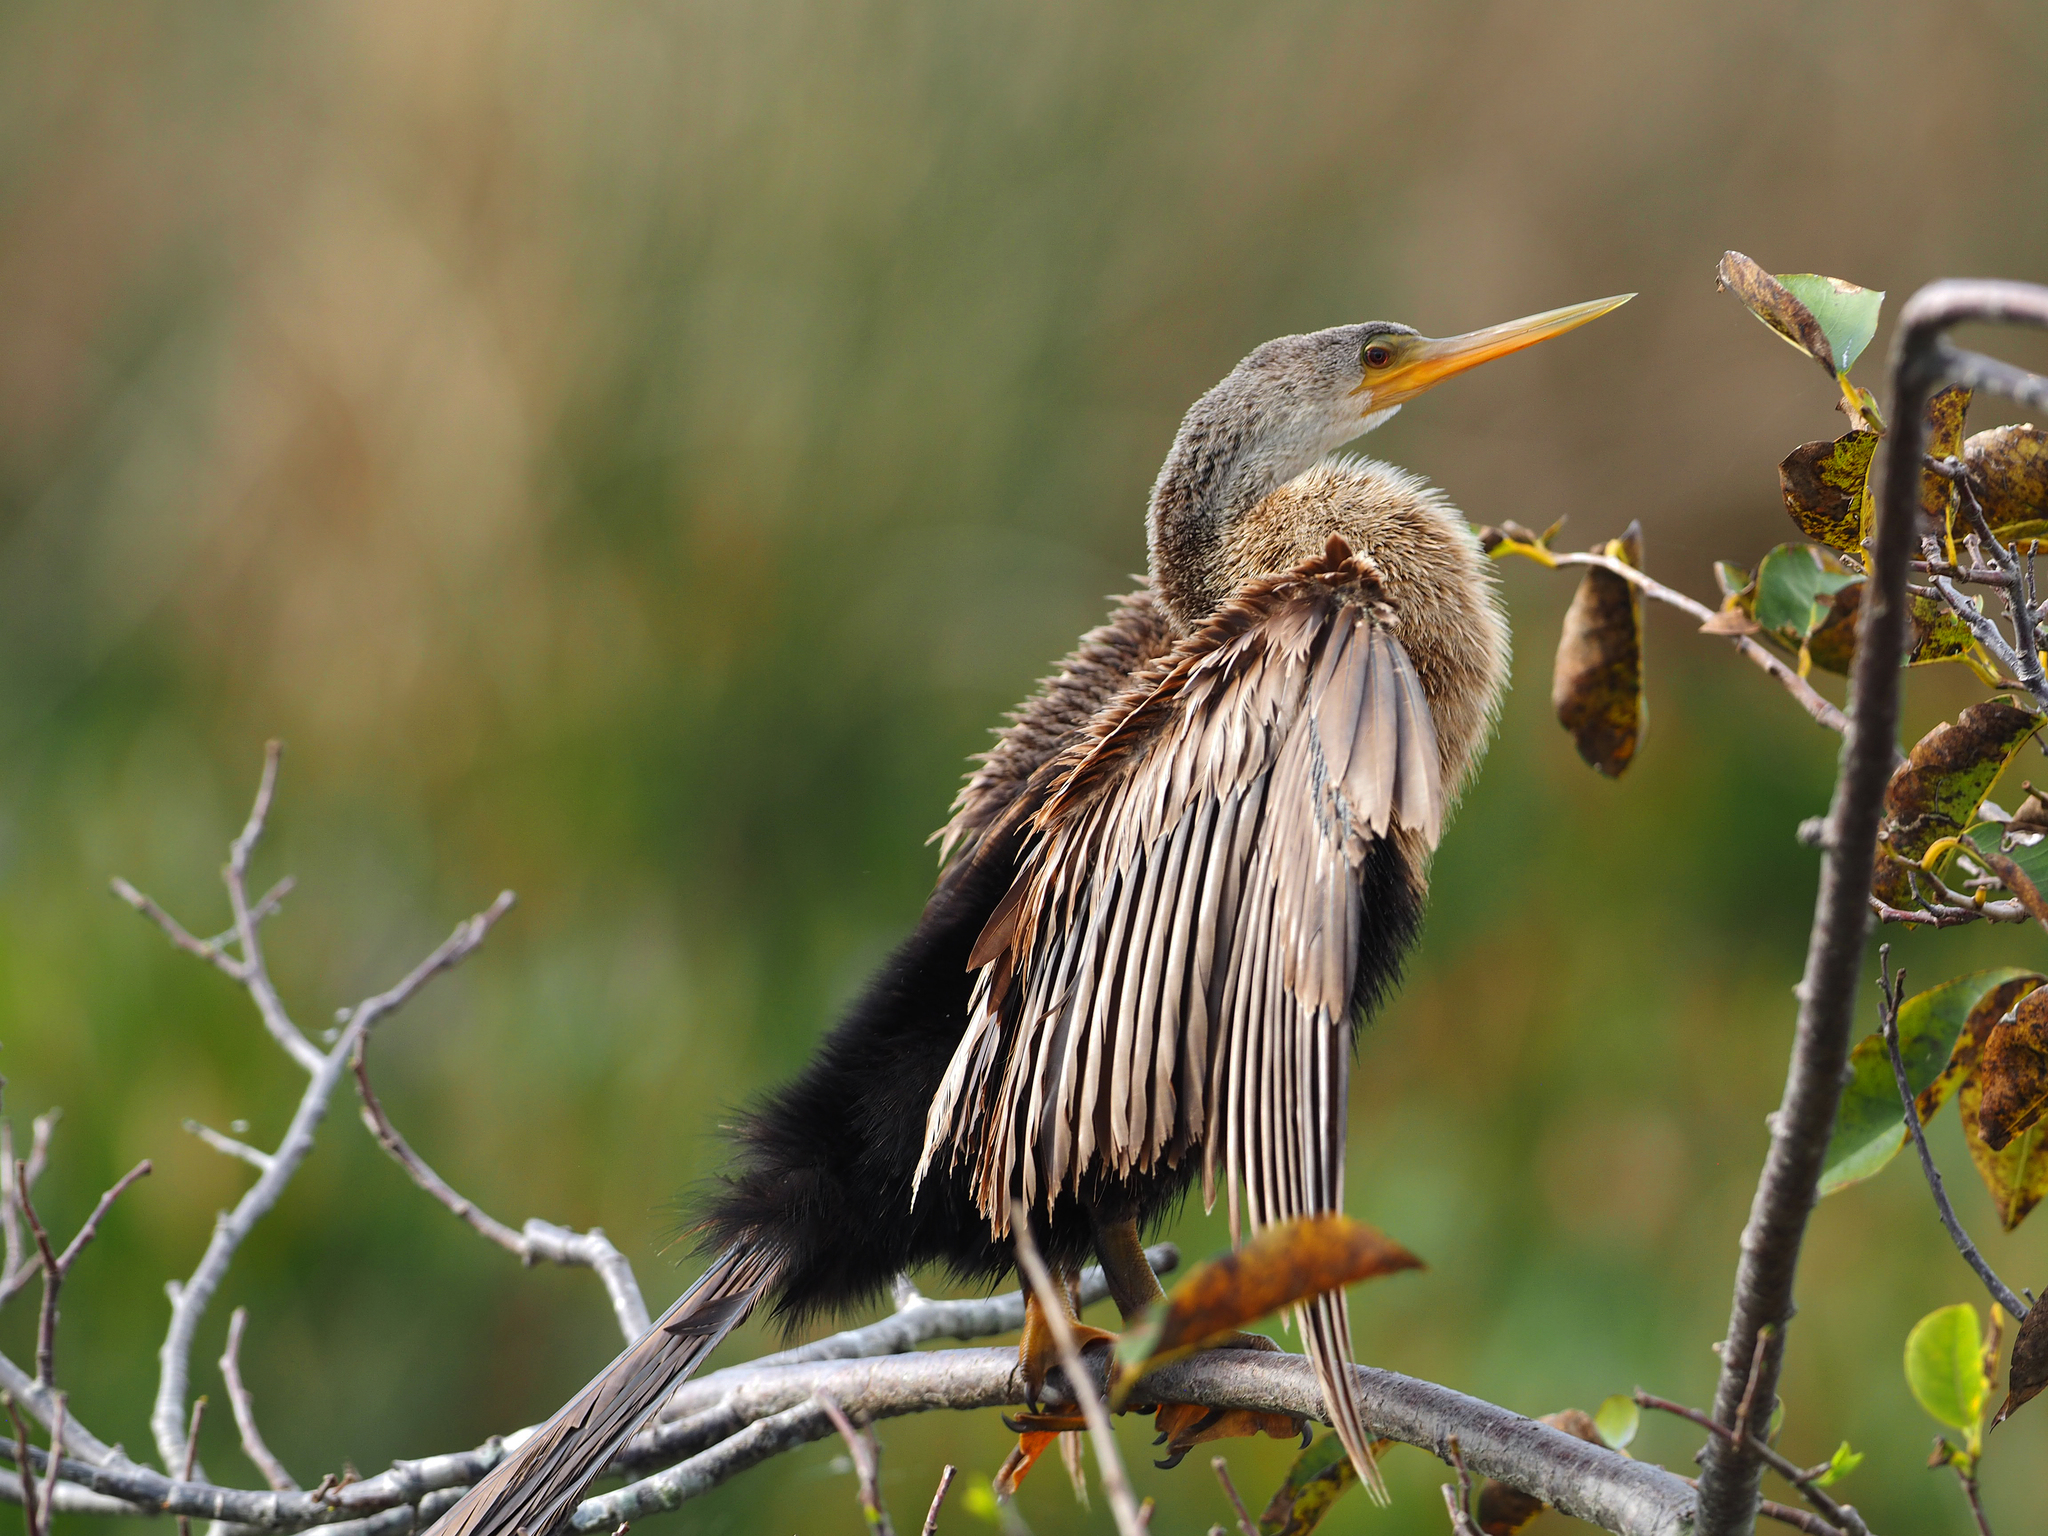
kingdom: Animalia
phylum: Chordata
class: Aves
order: Suliformes
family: Anhingidae
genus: Anhinga
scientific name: Anhinga anhinga
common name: Anhinga
